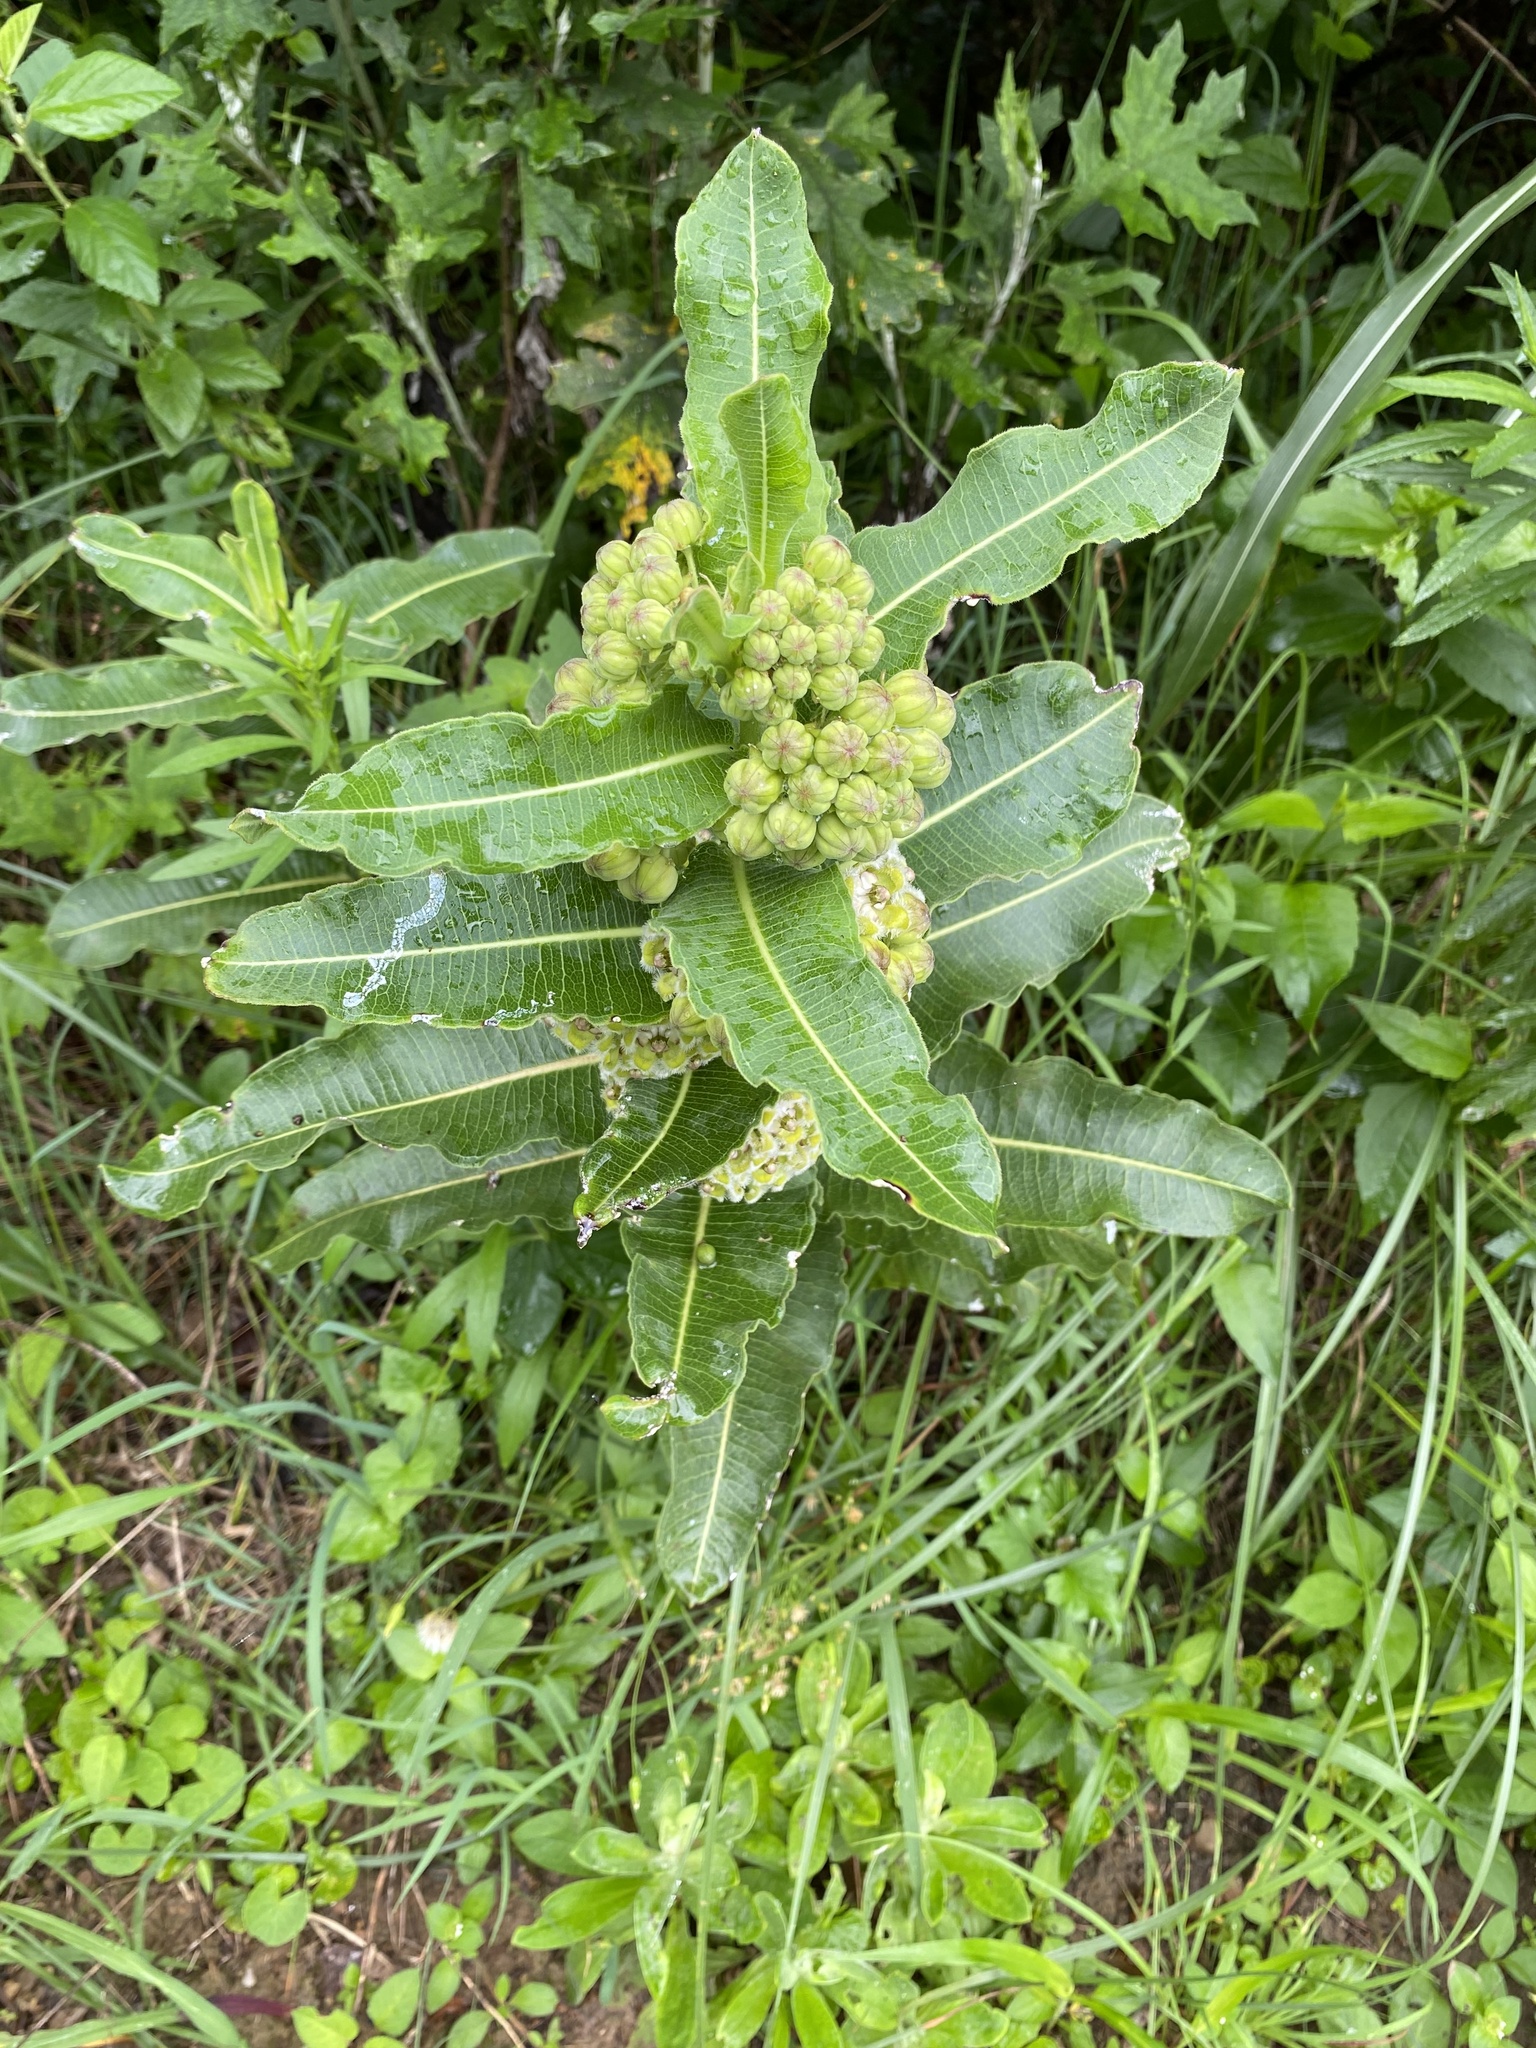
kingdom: Plantae
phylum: Tracheophyta
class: Magnoliopsida
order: Gentianales
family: Apocynaceae
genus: Xysmalobium
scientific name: Xysmalobium undulatum
